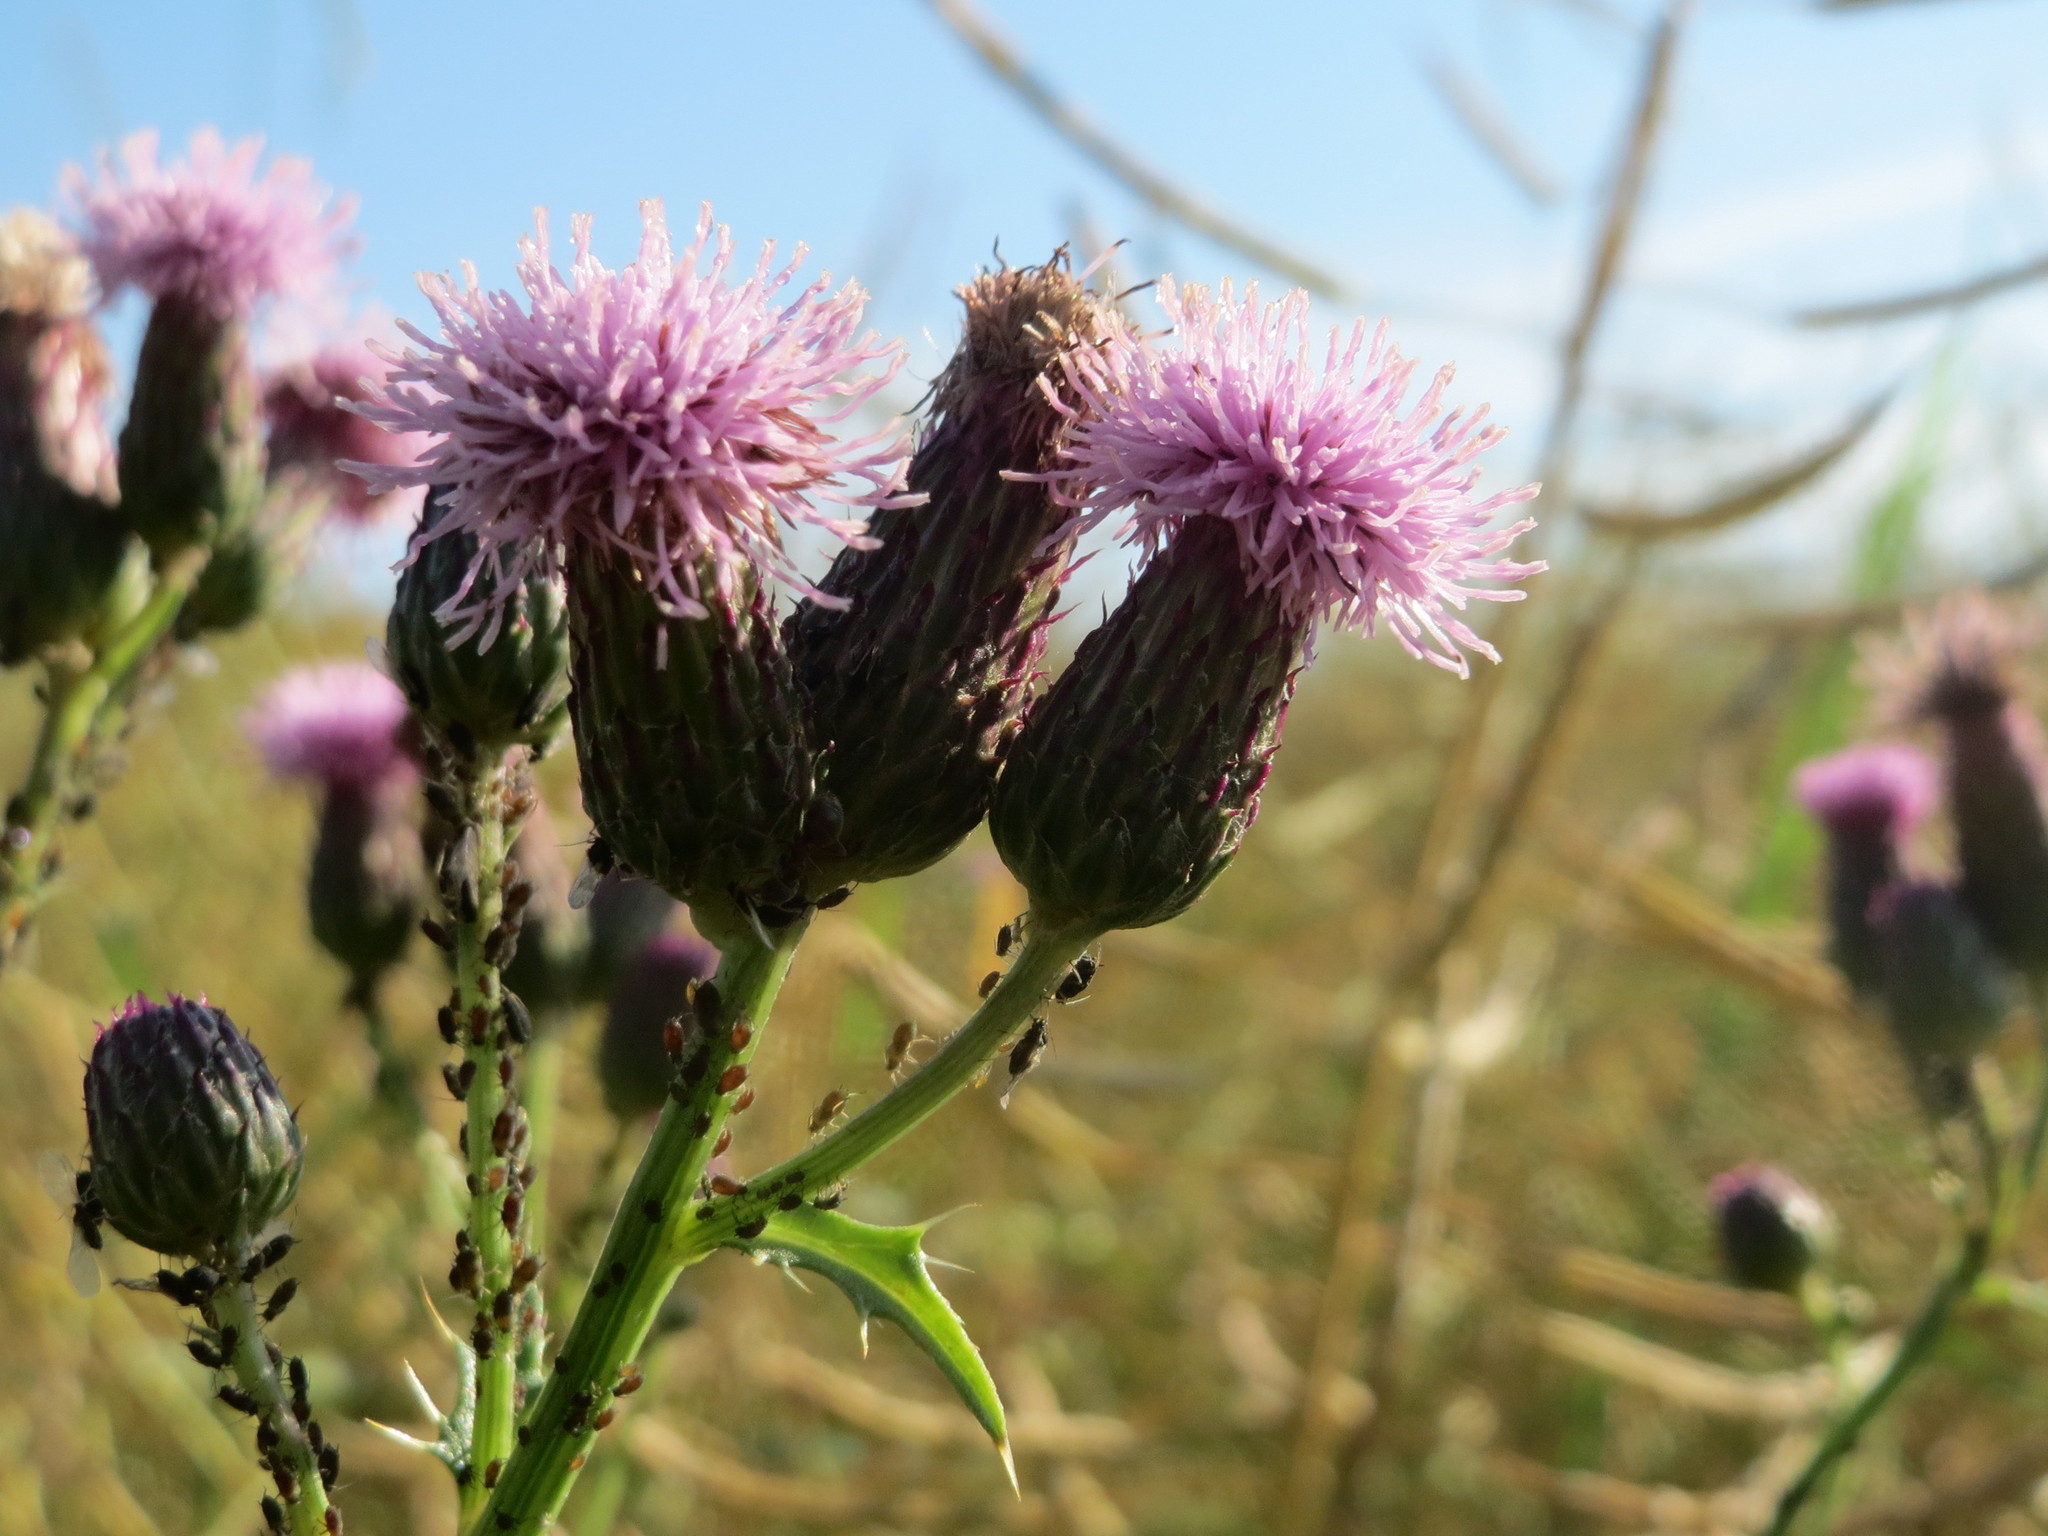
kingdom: Plantae
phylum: Tracheophyta
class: Magnoliopsida
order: Asterales
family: Asteraceae
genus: Cirsium
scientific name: Cirsium arvense
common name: Creeping thistle
